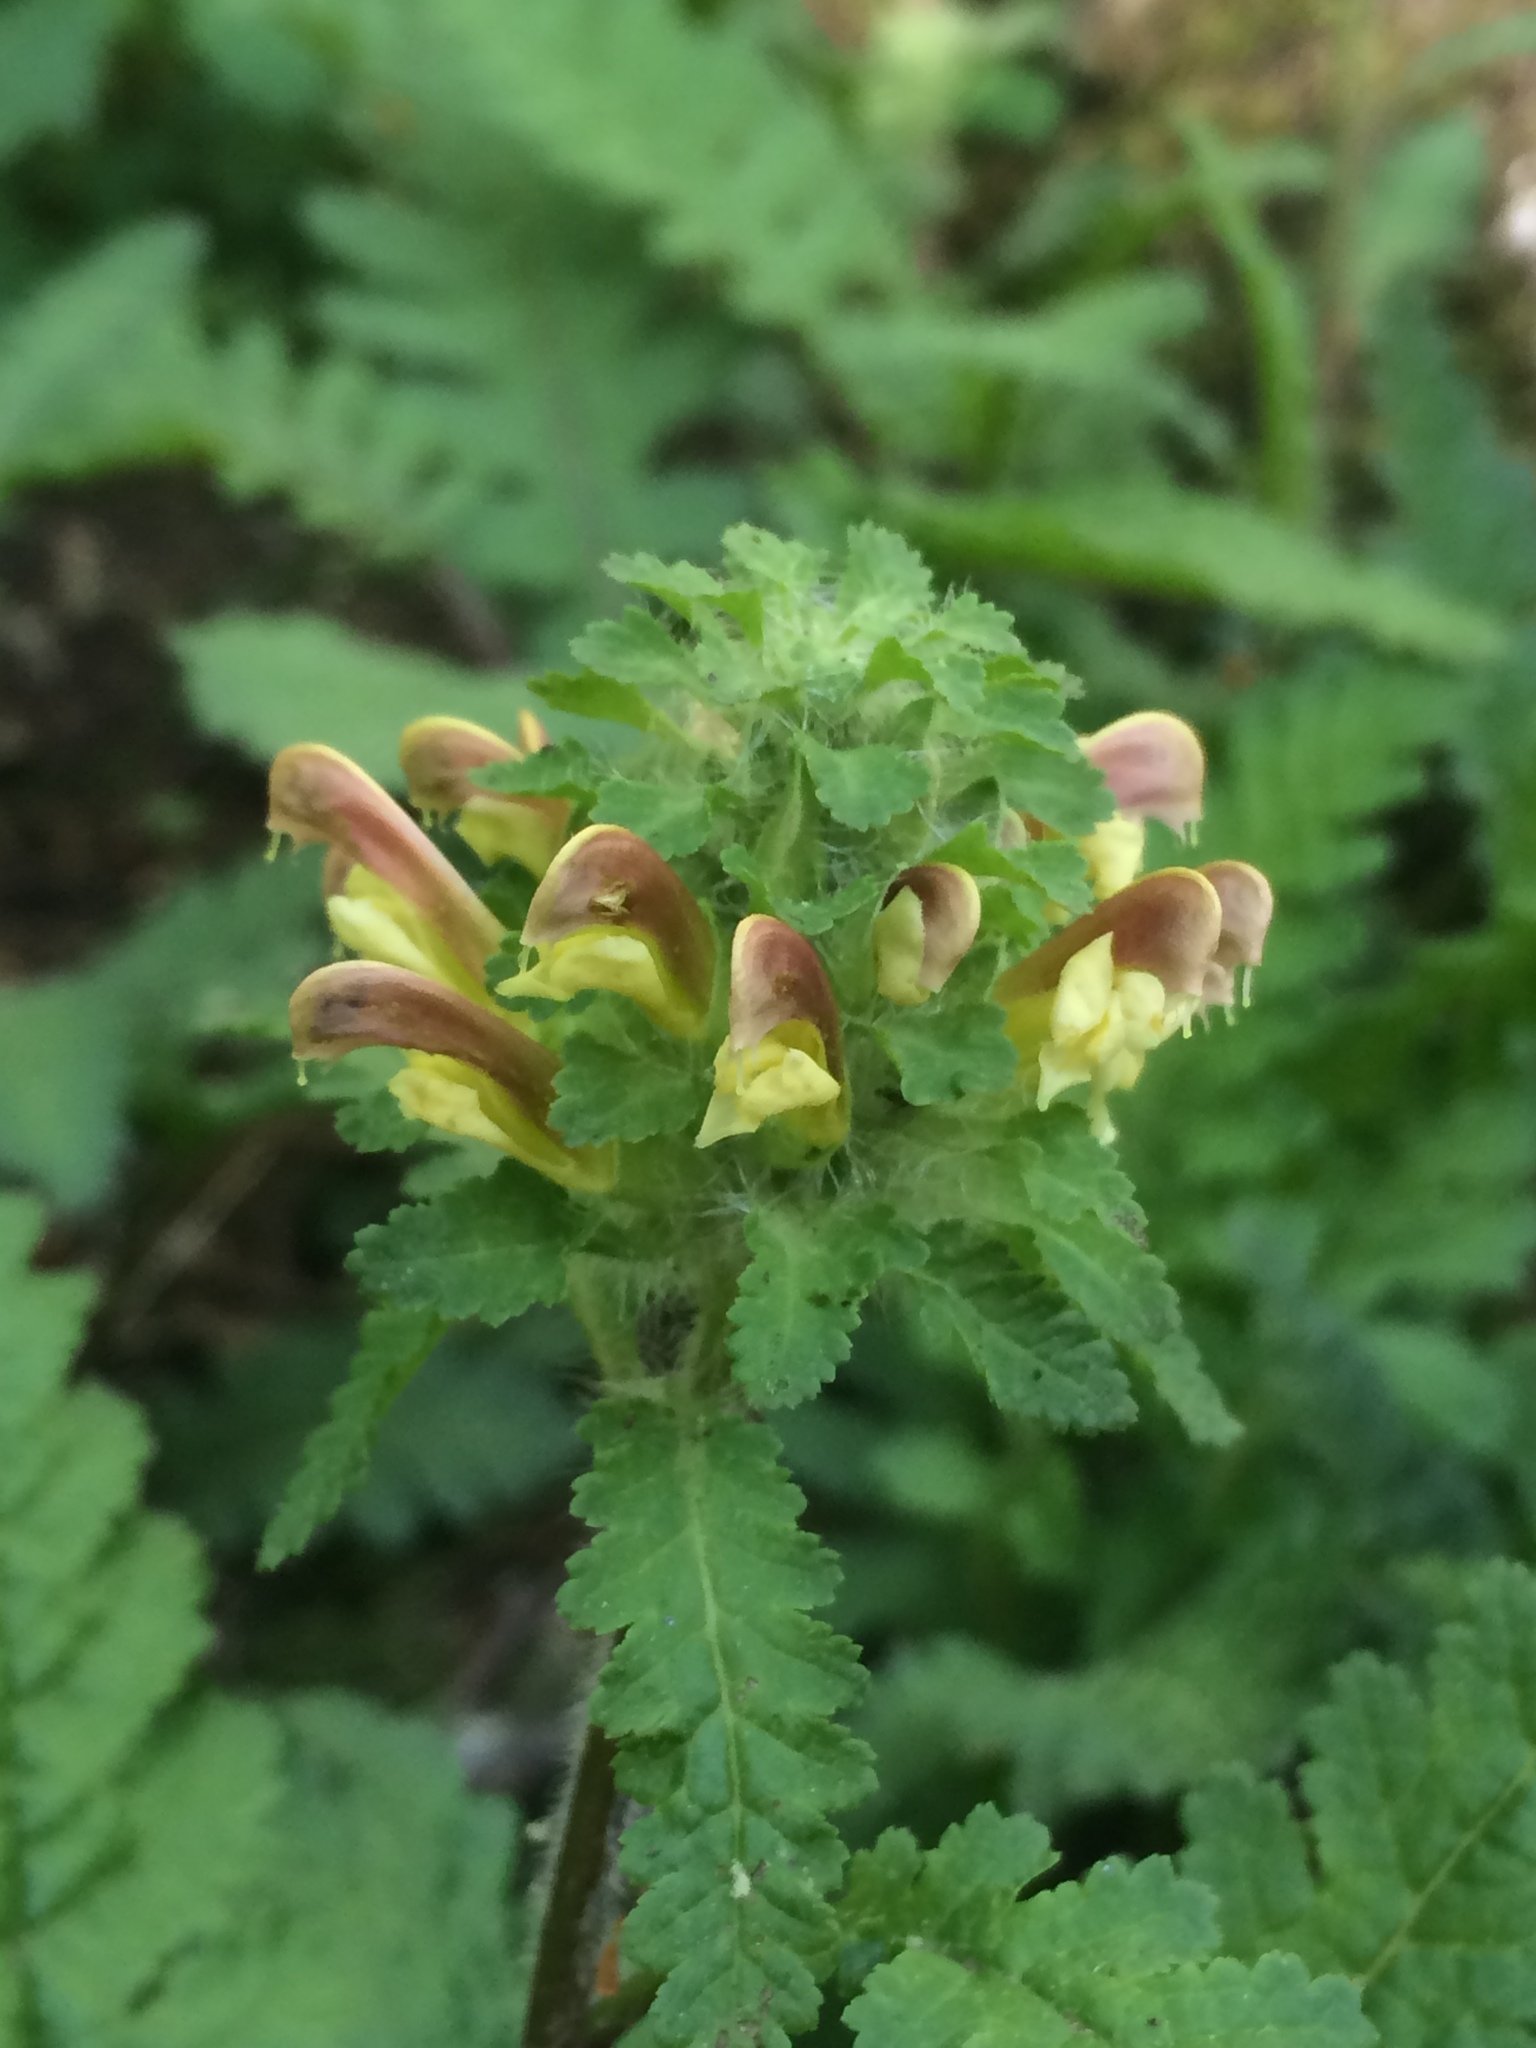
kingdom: Plantae
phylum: Tracheophyta
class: Magnoliopsida
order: Lamiales
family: Orobanchaceae
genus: Pedicularis
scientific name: Pedicularis canadensis
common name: Early lousewort
